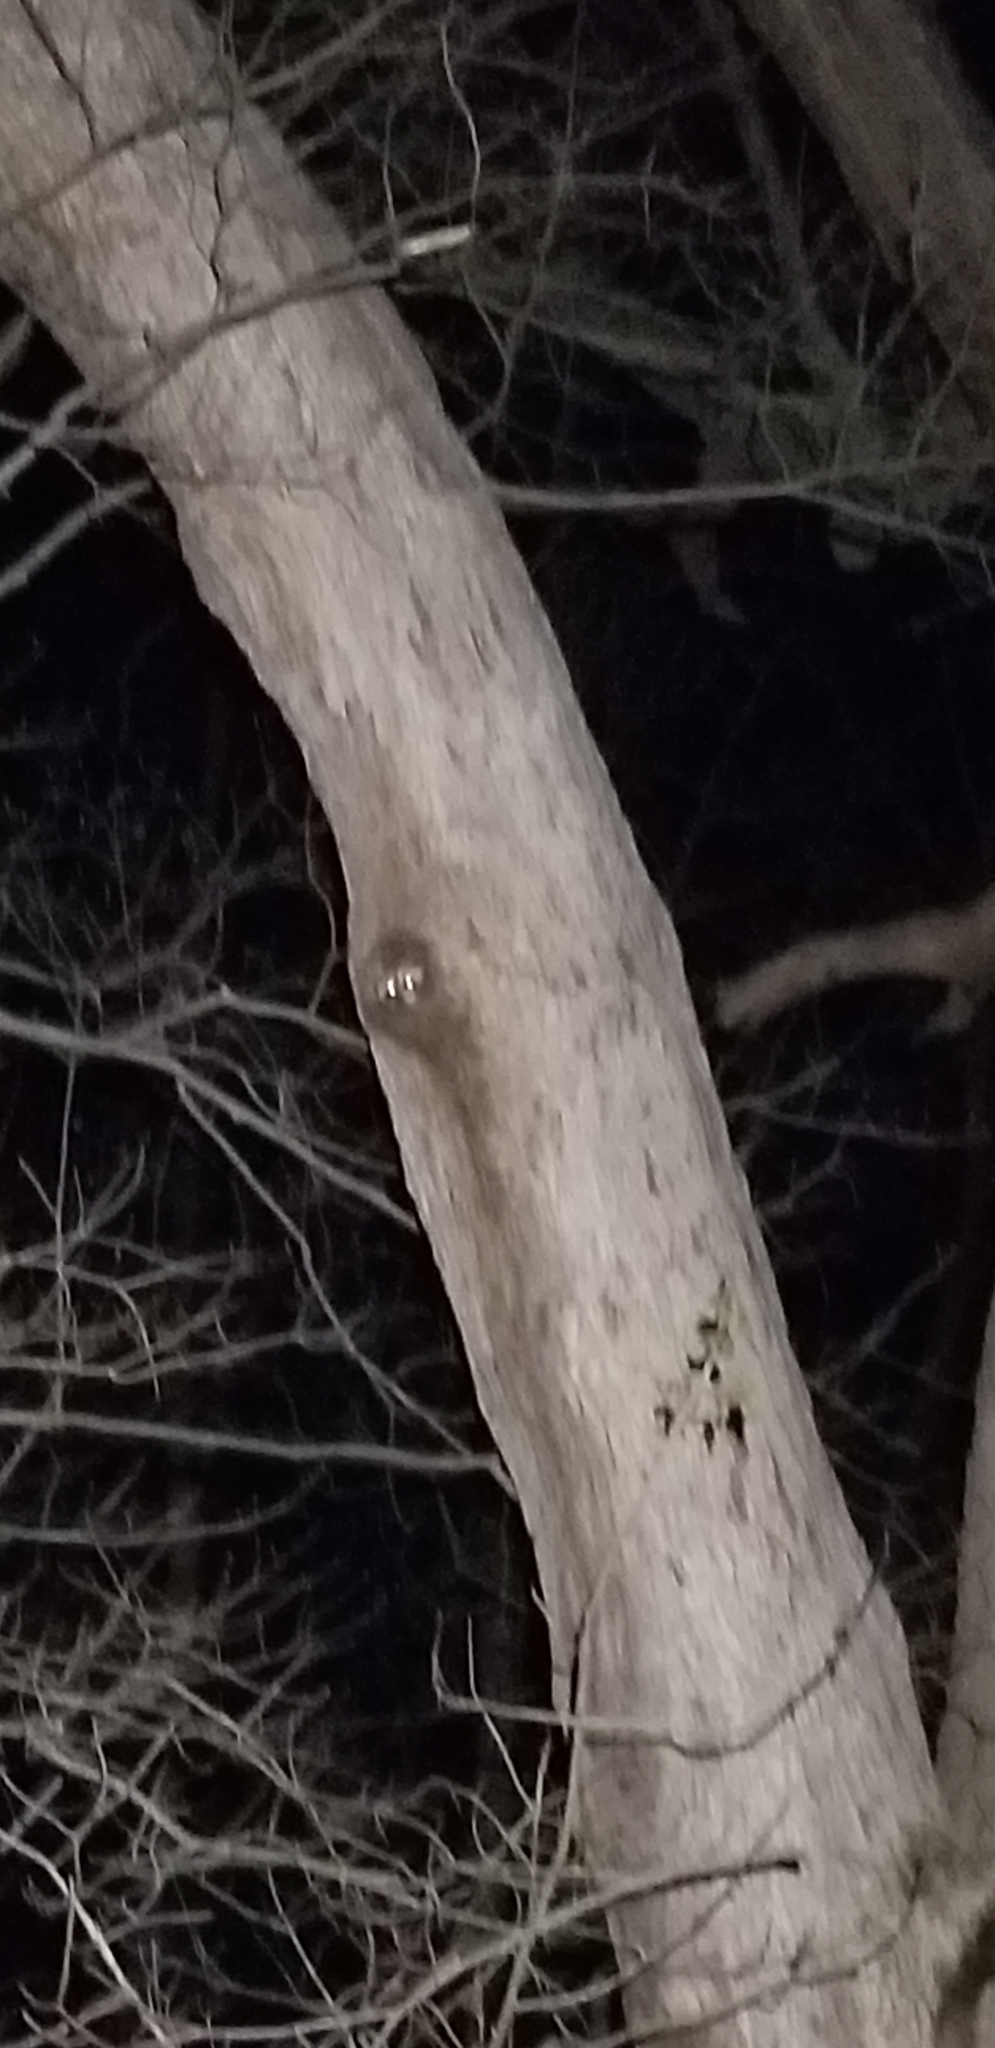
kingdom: Animalia
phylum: Chordata
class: Mammalia
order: Carnivora
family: Procyonidae
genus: Procyon
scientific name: Procyon lotor
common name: Raccoon
